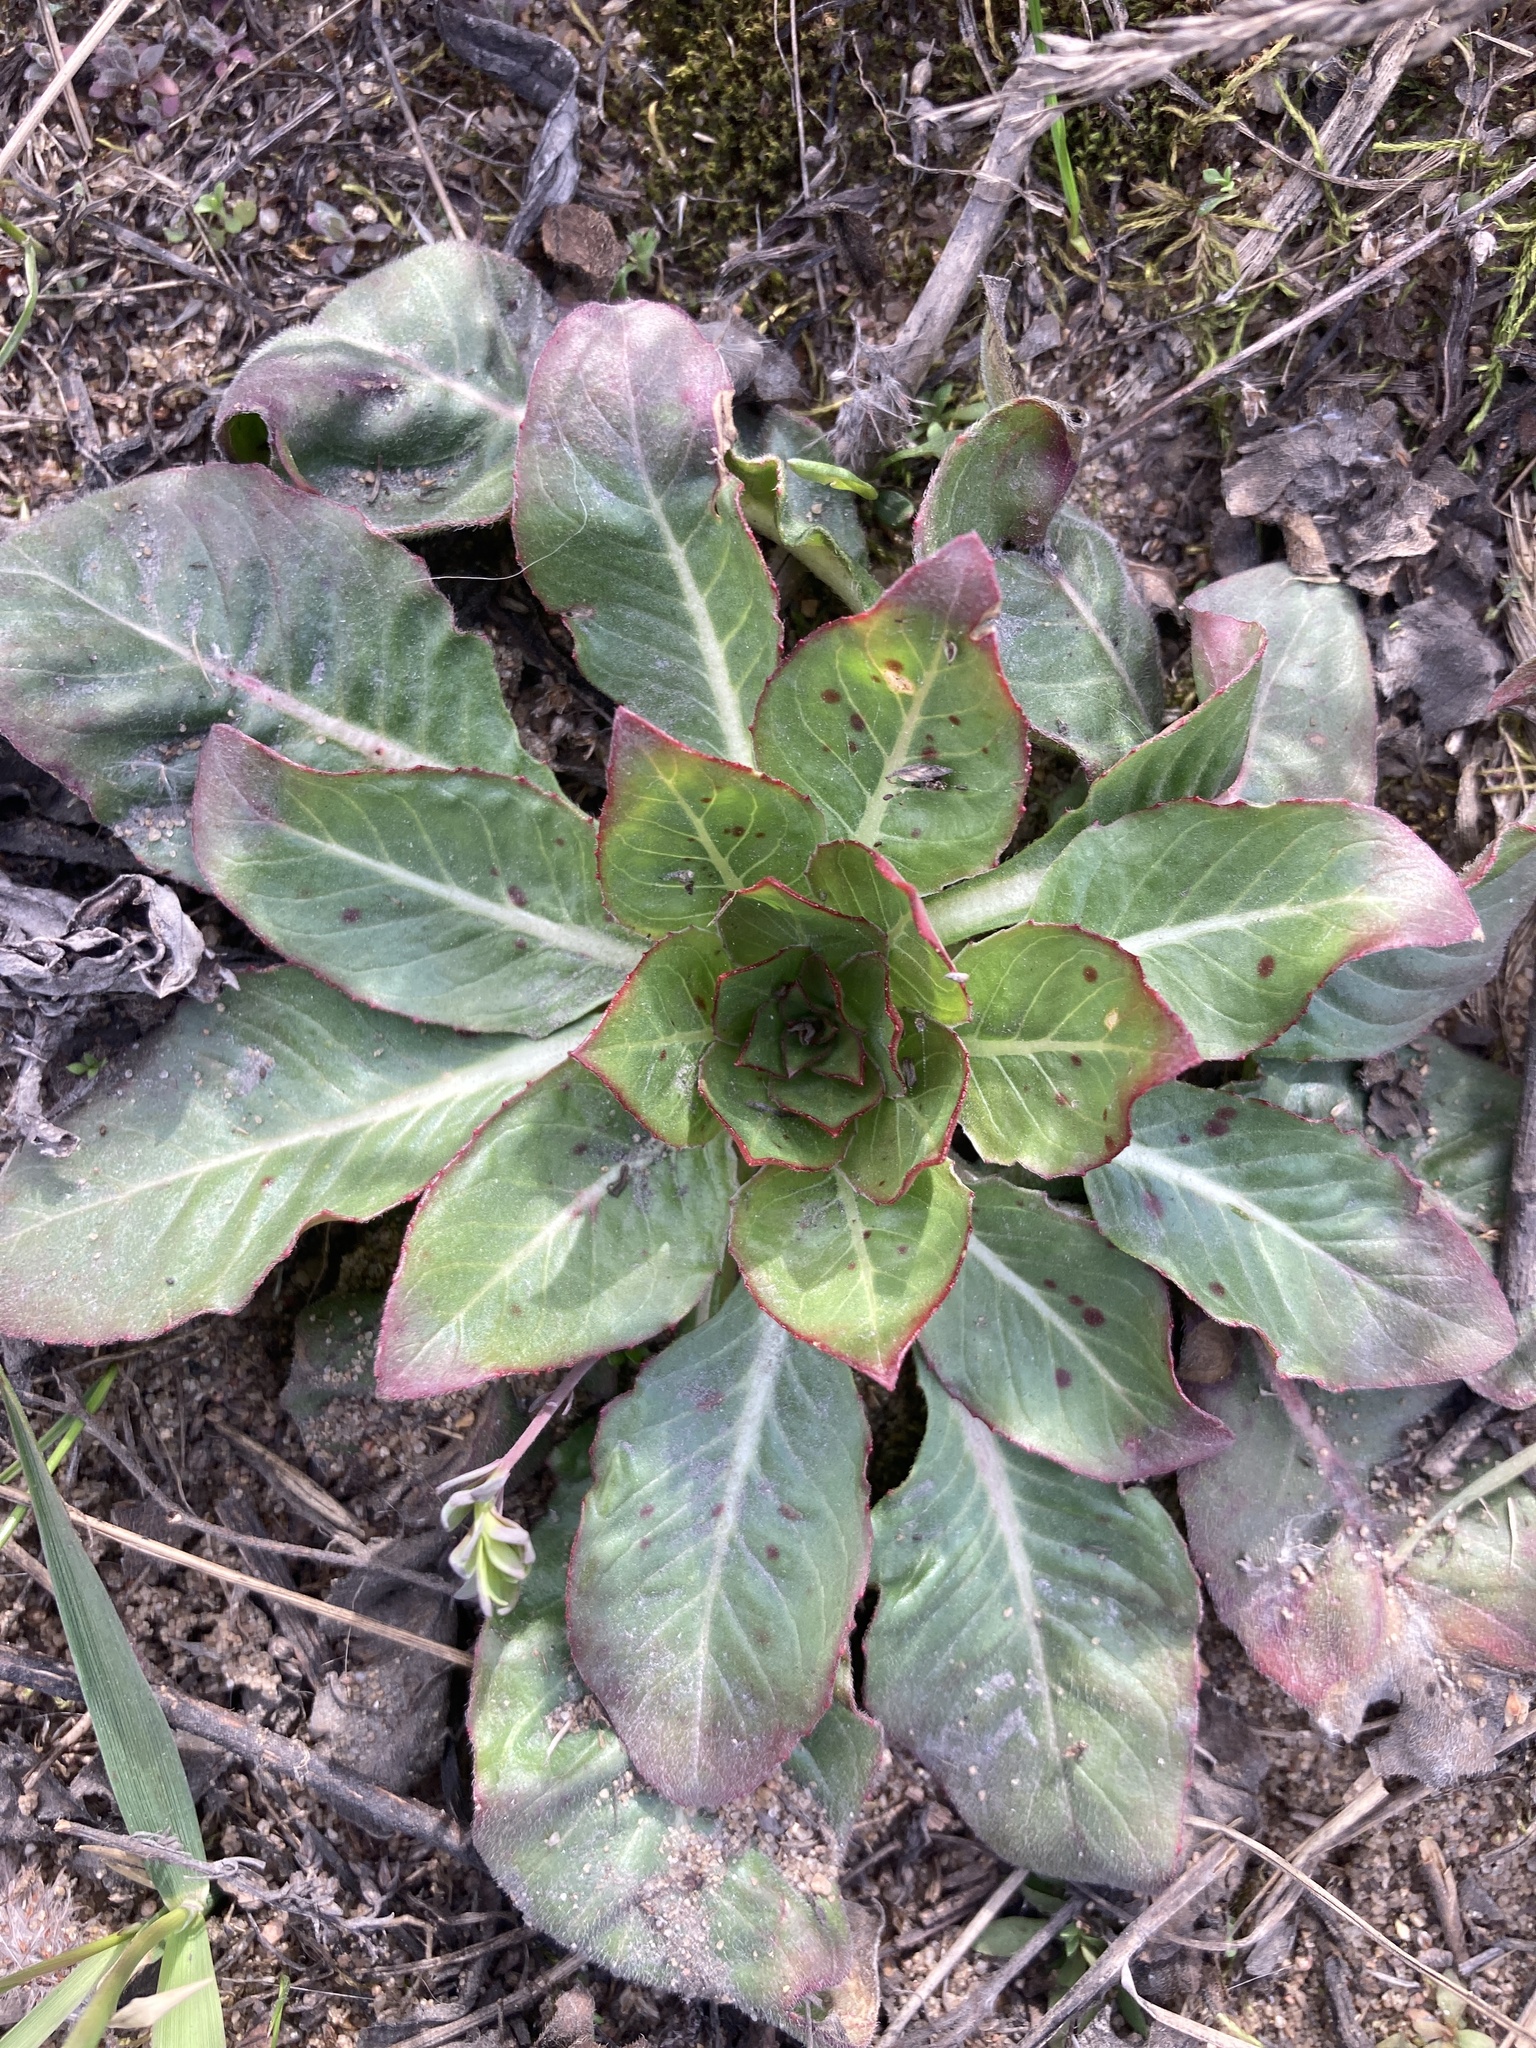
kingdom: Plantae
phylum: Tracheophyta
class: Magnoliopsida
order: Myrtales
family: Onagraceae
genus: Oenothera
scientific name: Oenothera
